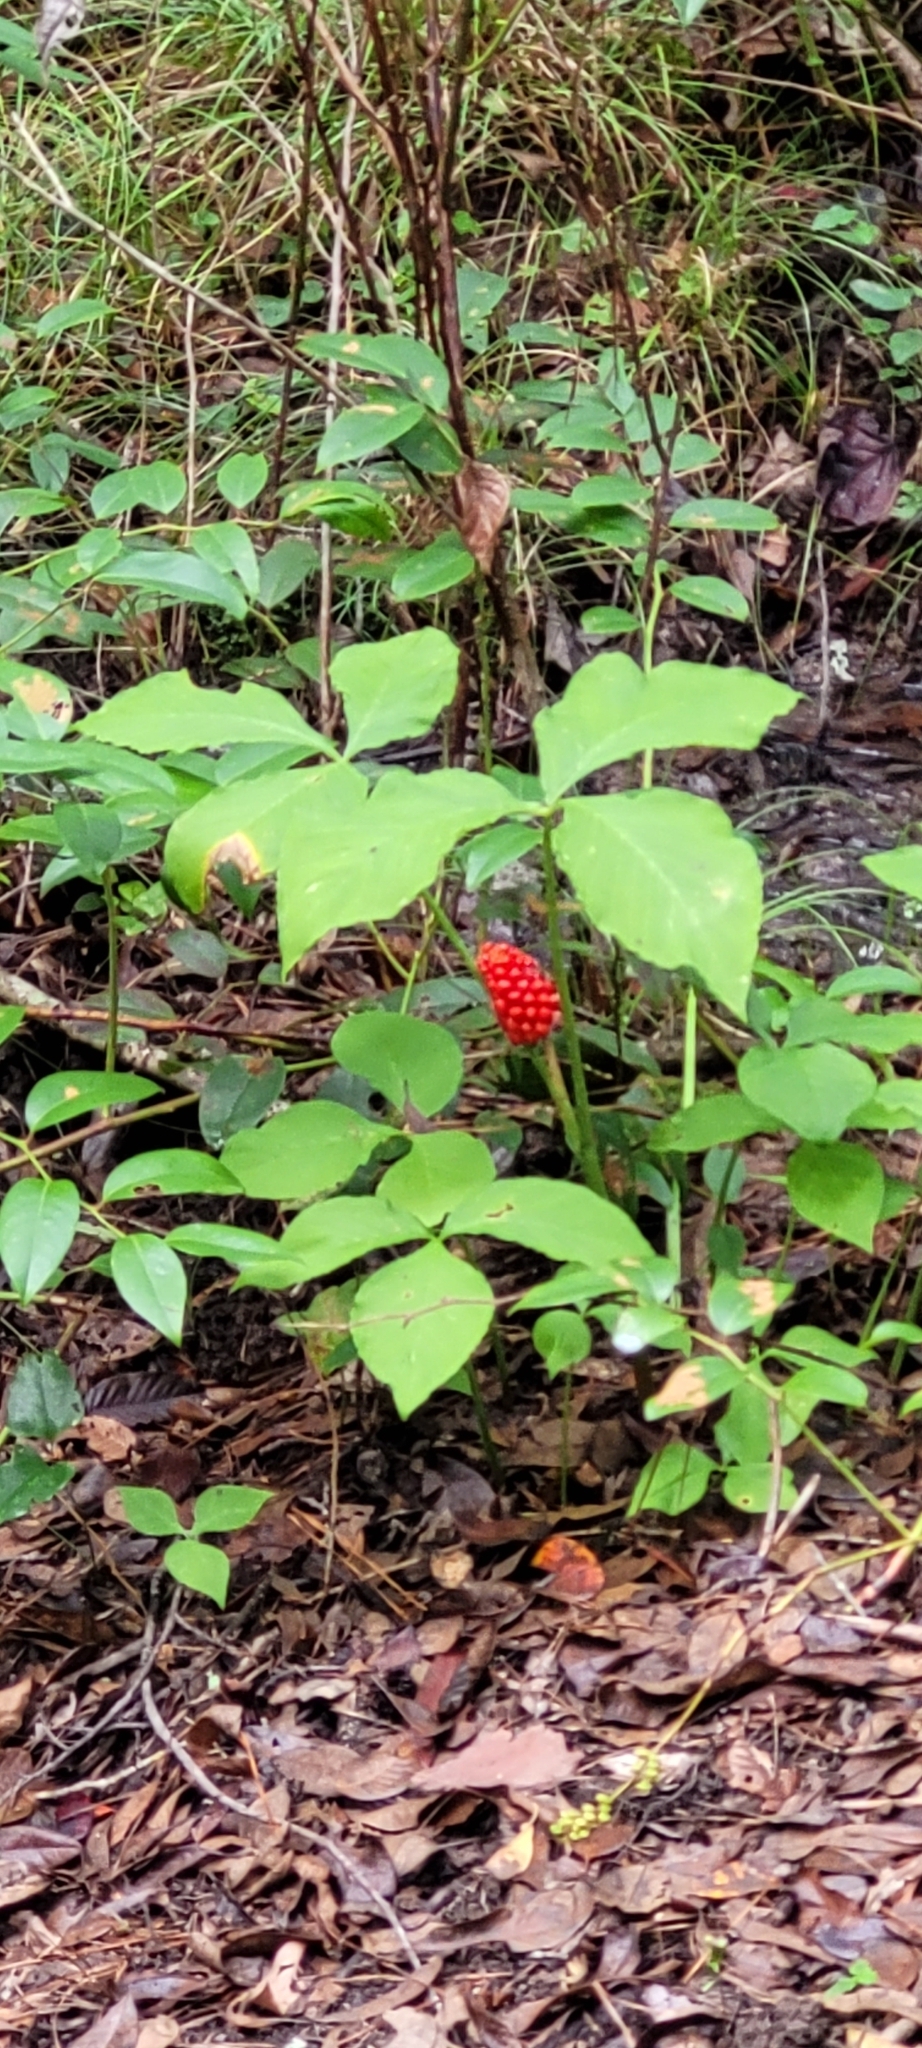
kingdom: Plantae
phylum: Tracheophyta
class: Liliopsida
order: Alismatales
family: Araceae
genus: Arisaema
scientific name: Arisaema triphyllum
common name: Jack-in-the-pulpit
